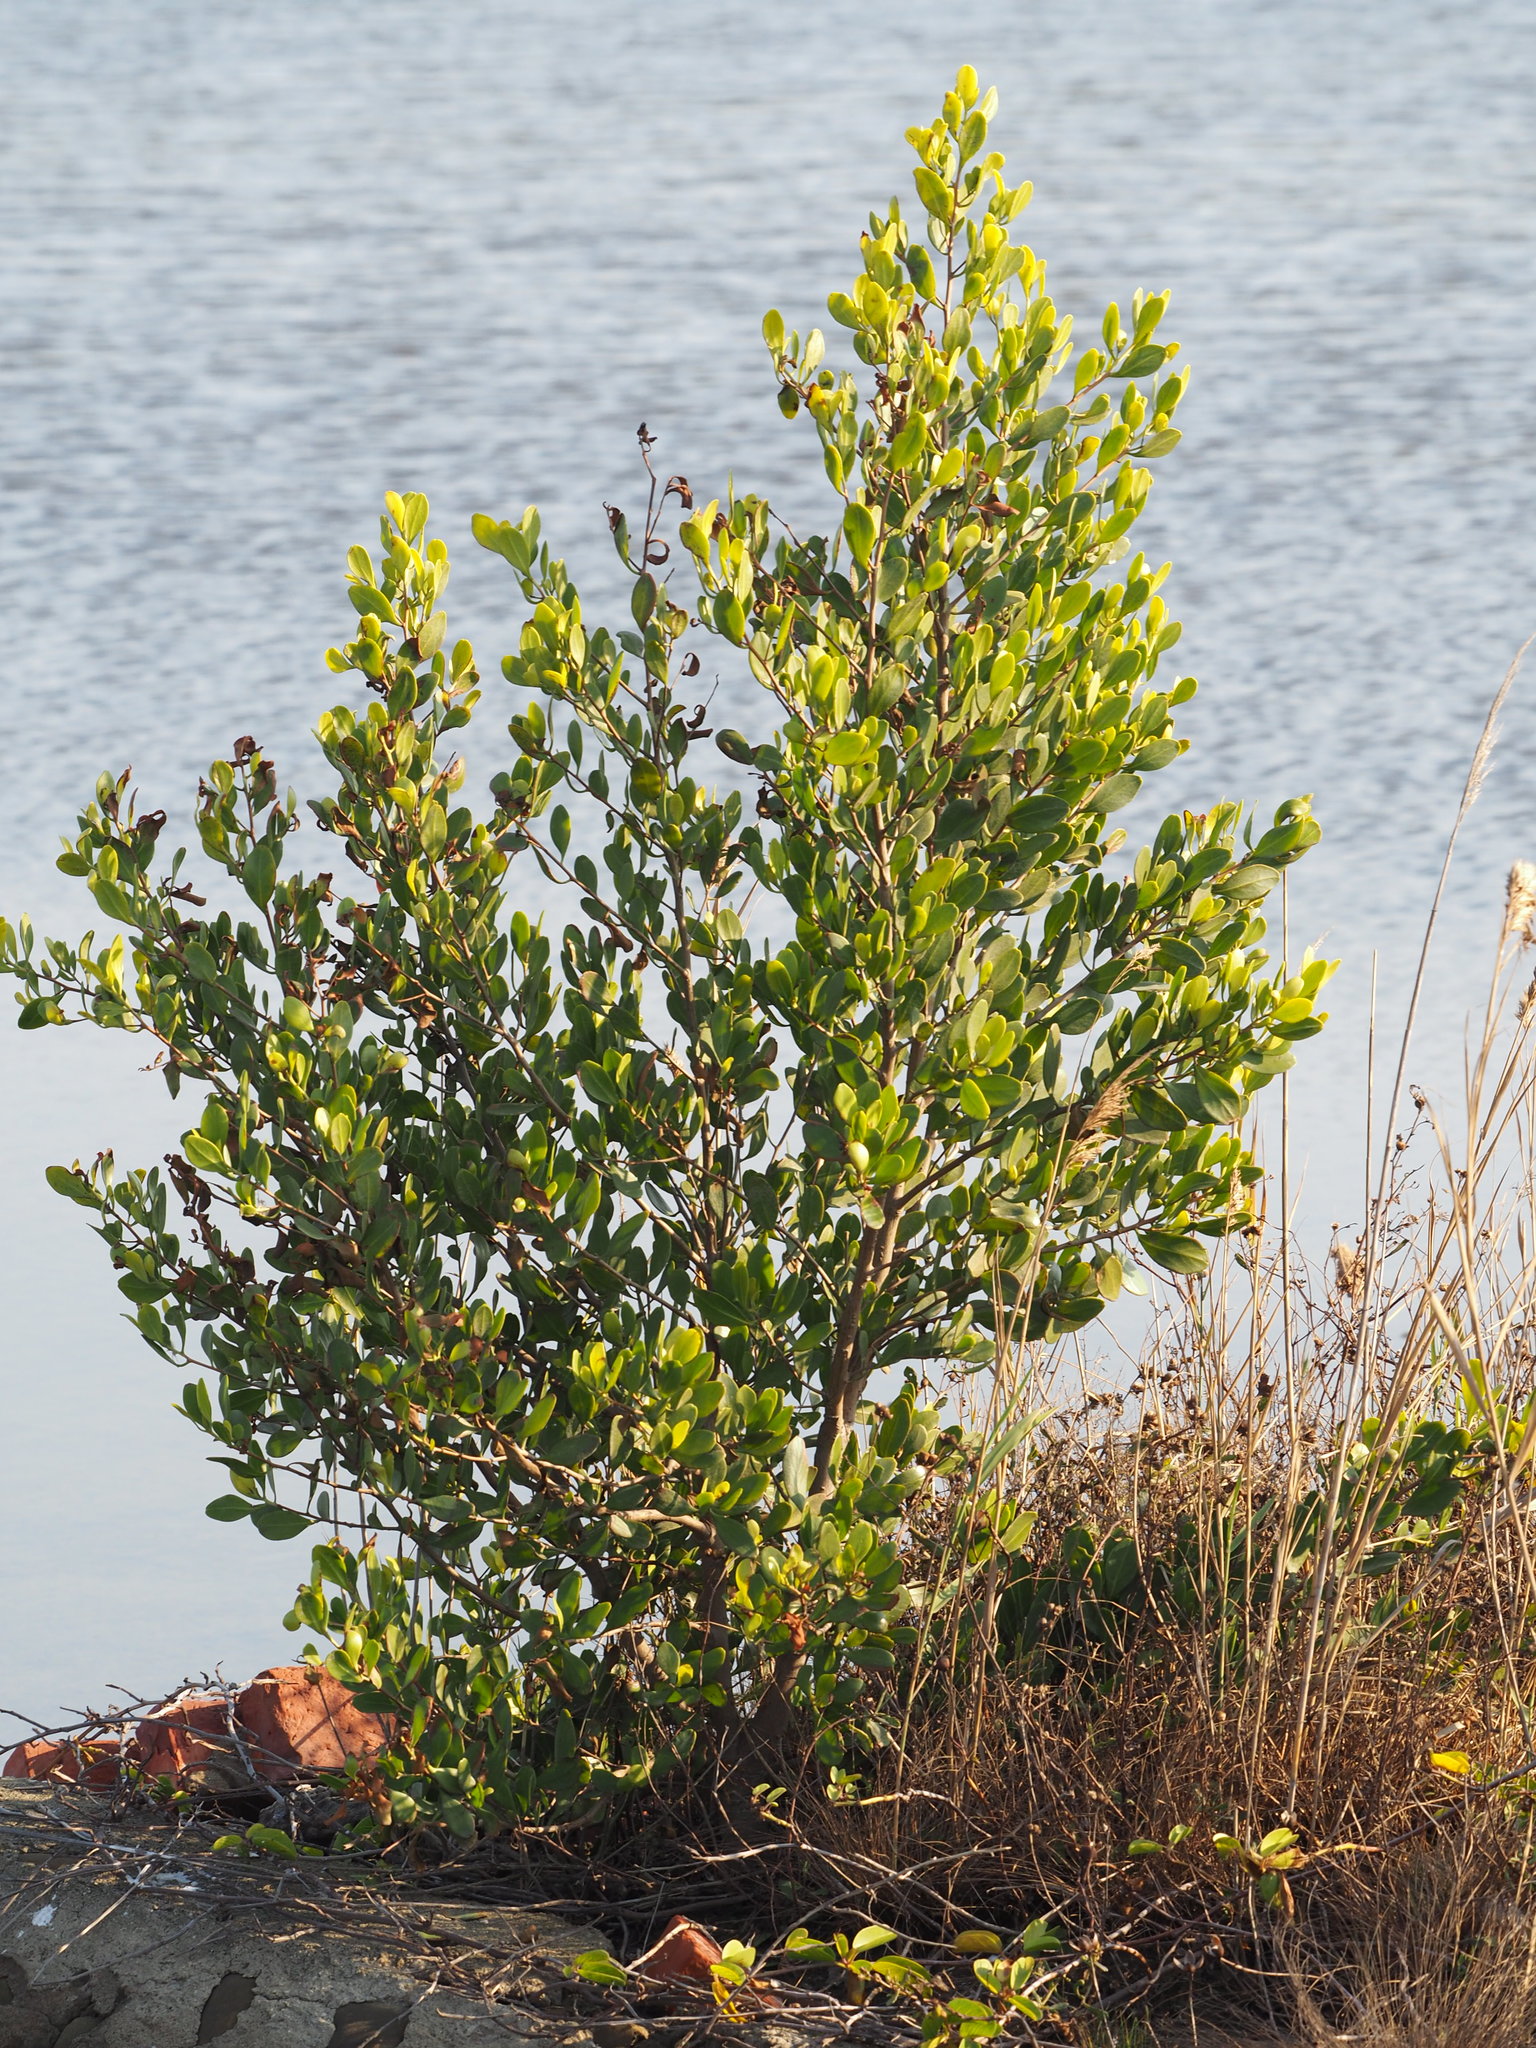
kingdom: Plantae
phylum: Tracheophyta
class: Magnoliopsida
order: Myrtales
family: Combretaceae
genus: Lumnitzera
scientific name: Lumnitzera racemosa
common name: White-flowered black mangrove
